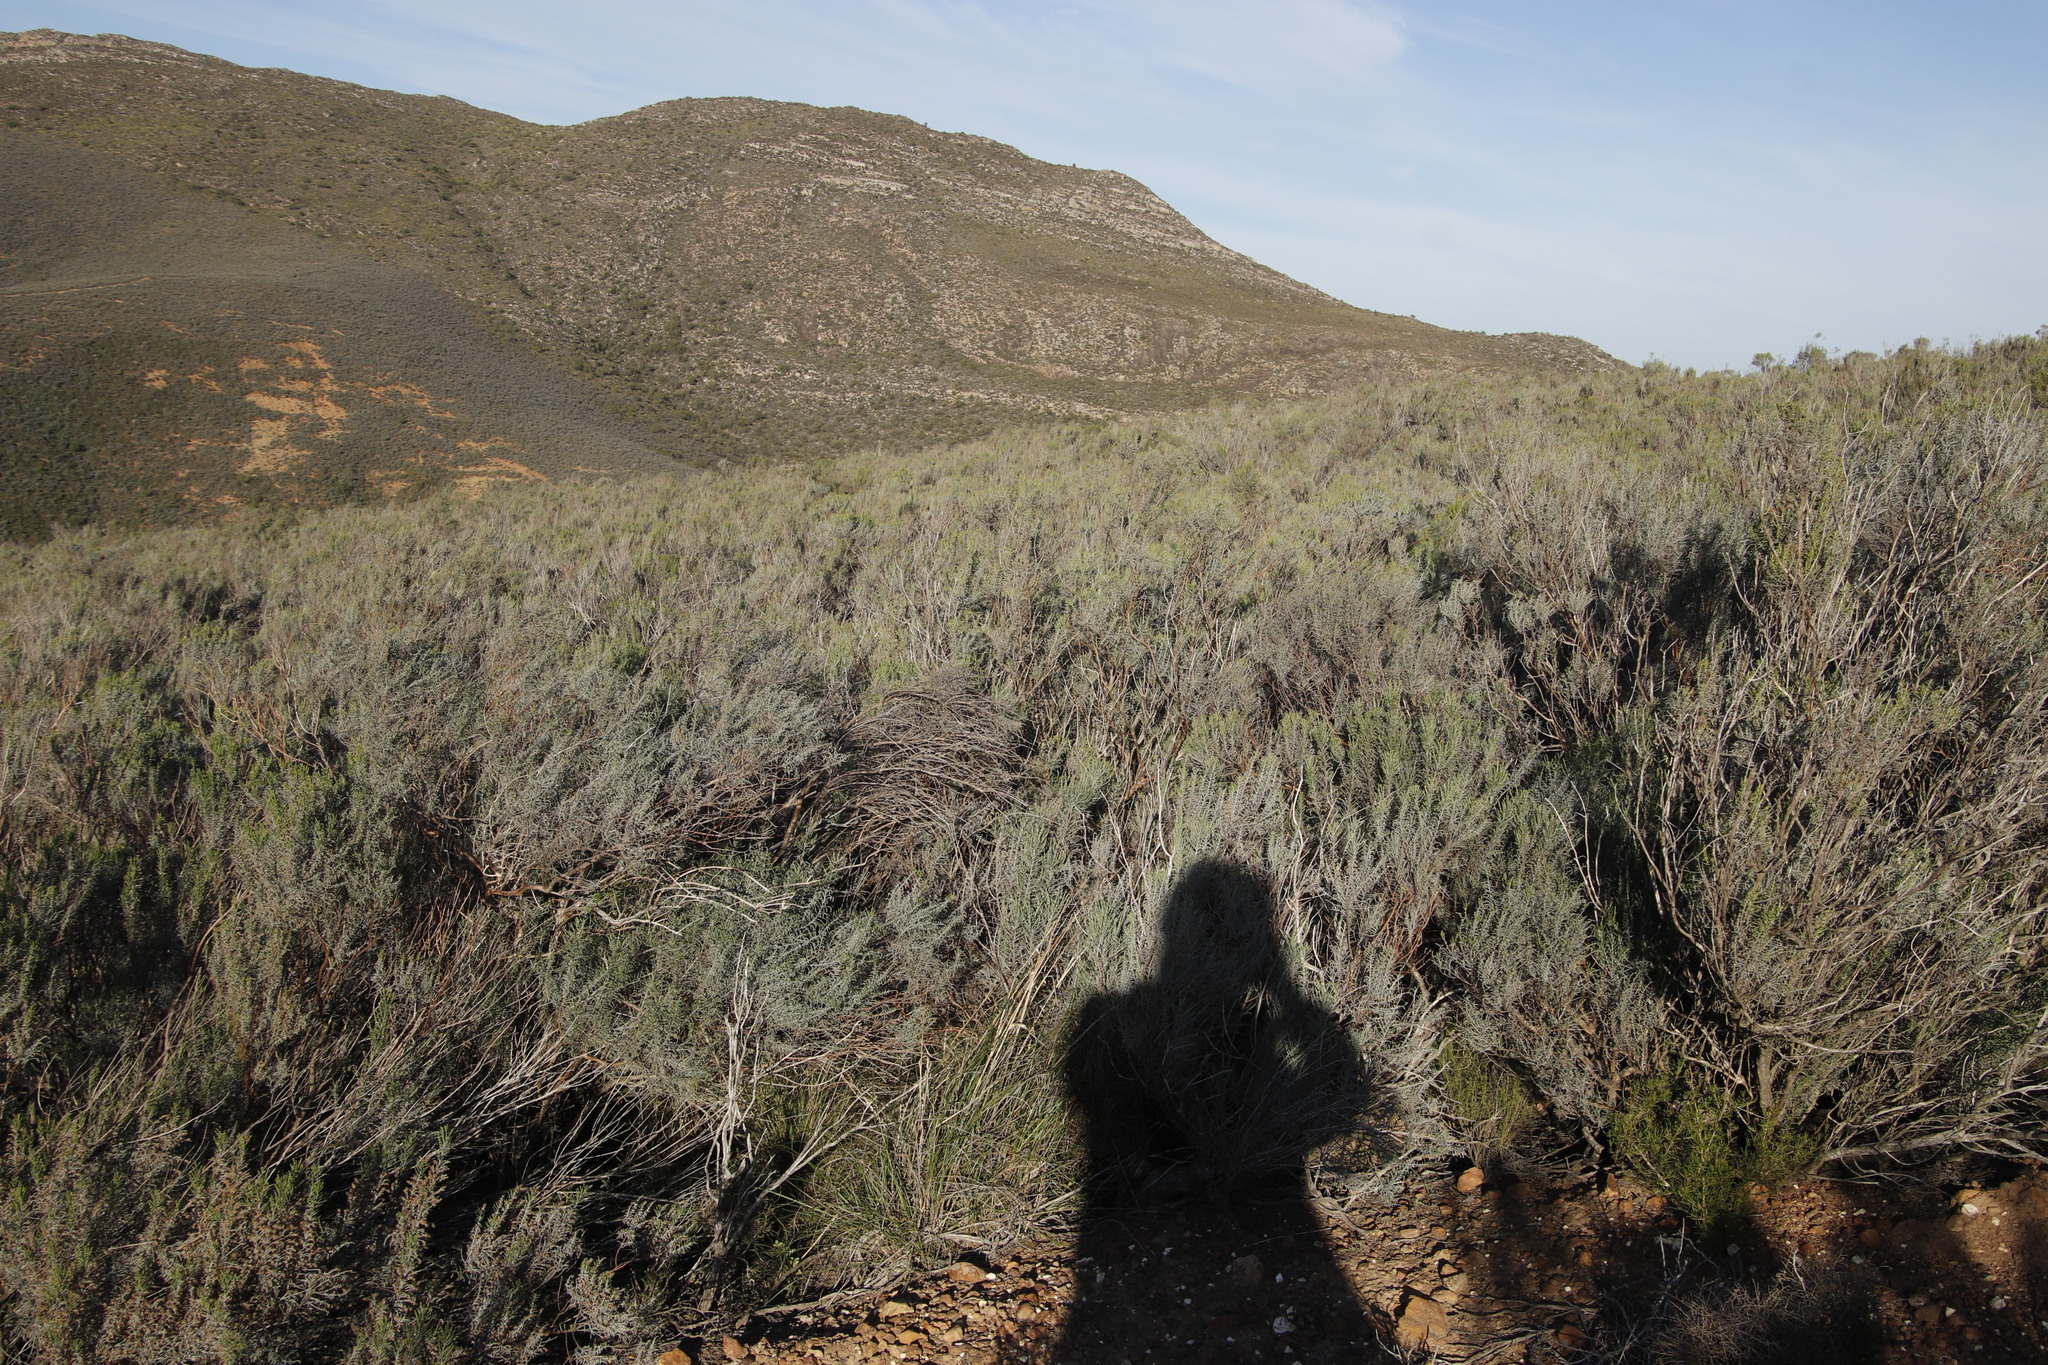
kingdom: Plantae
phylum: Tracheophyta
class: Magnoliopsida
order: Asterales
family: Asteraceae
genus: Dicerothamnus
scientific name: Dicerothamnus rhinocerotis
